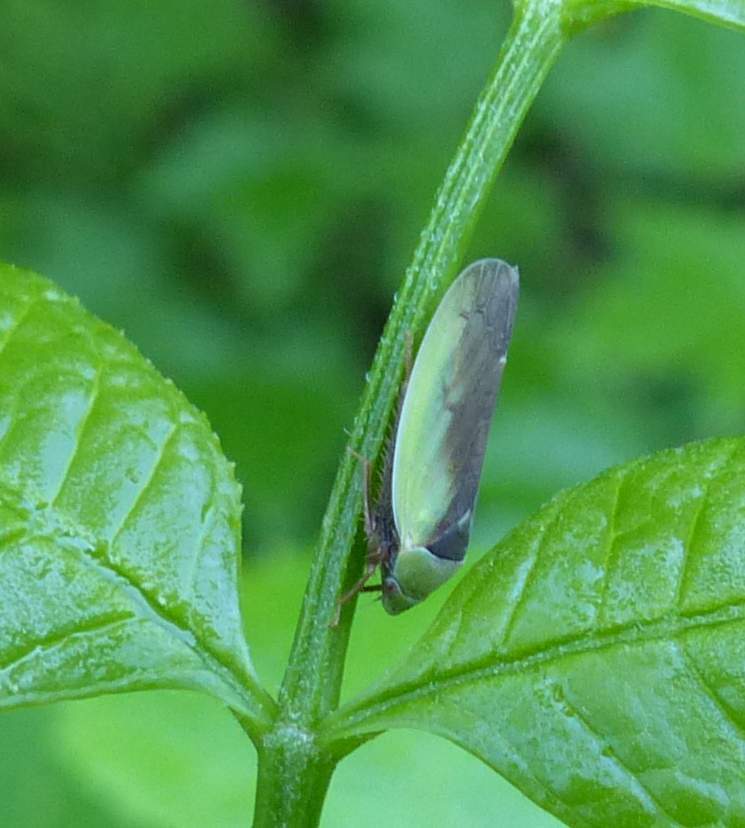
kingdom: Animalia
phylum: Arthropoda
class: Insecta
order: Hemiptera
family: Cicadellidae
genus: Ponana
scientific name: Ponana pectoralis
